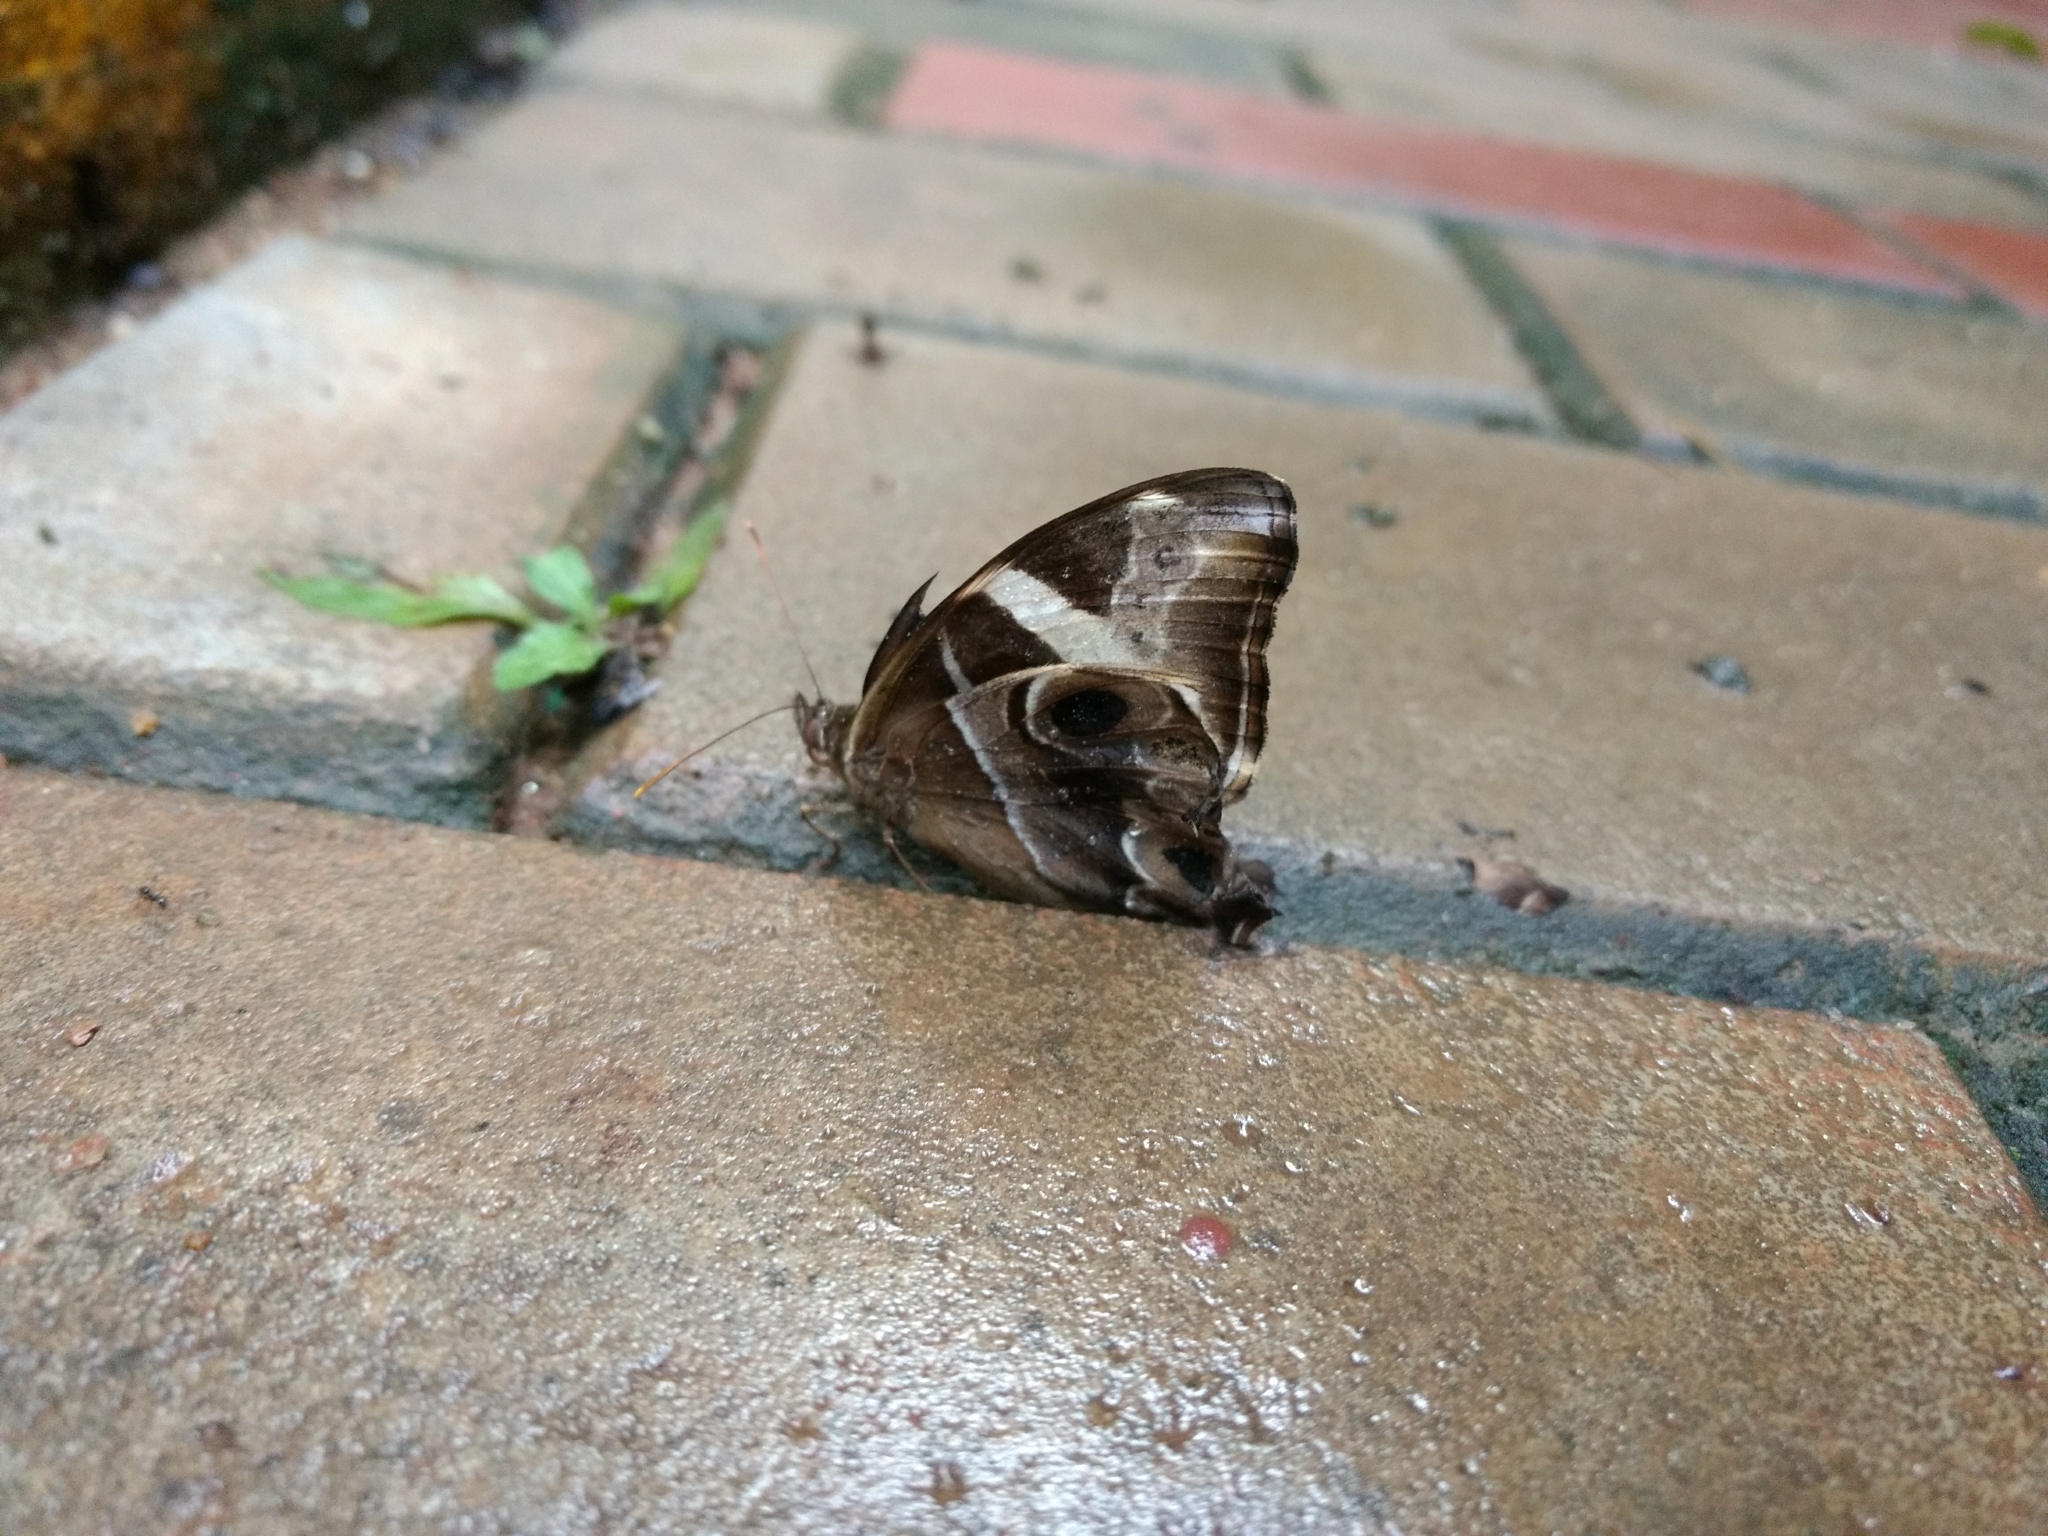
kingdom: Animalia
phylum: Arthropoda
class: Insecta
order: Lepidoptera
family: Nymphalidae
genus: Lethe
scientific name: Lethe europa
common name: Bamboo treebrown
